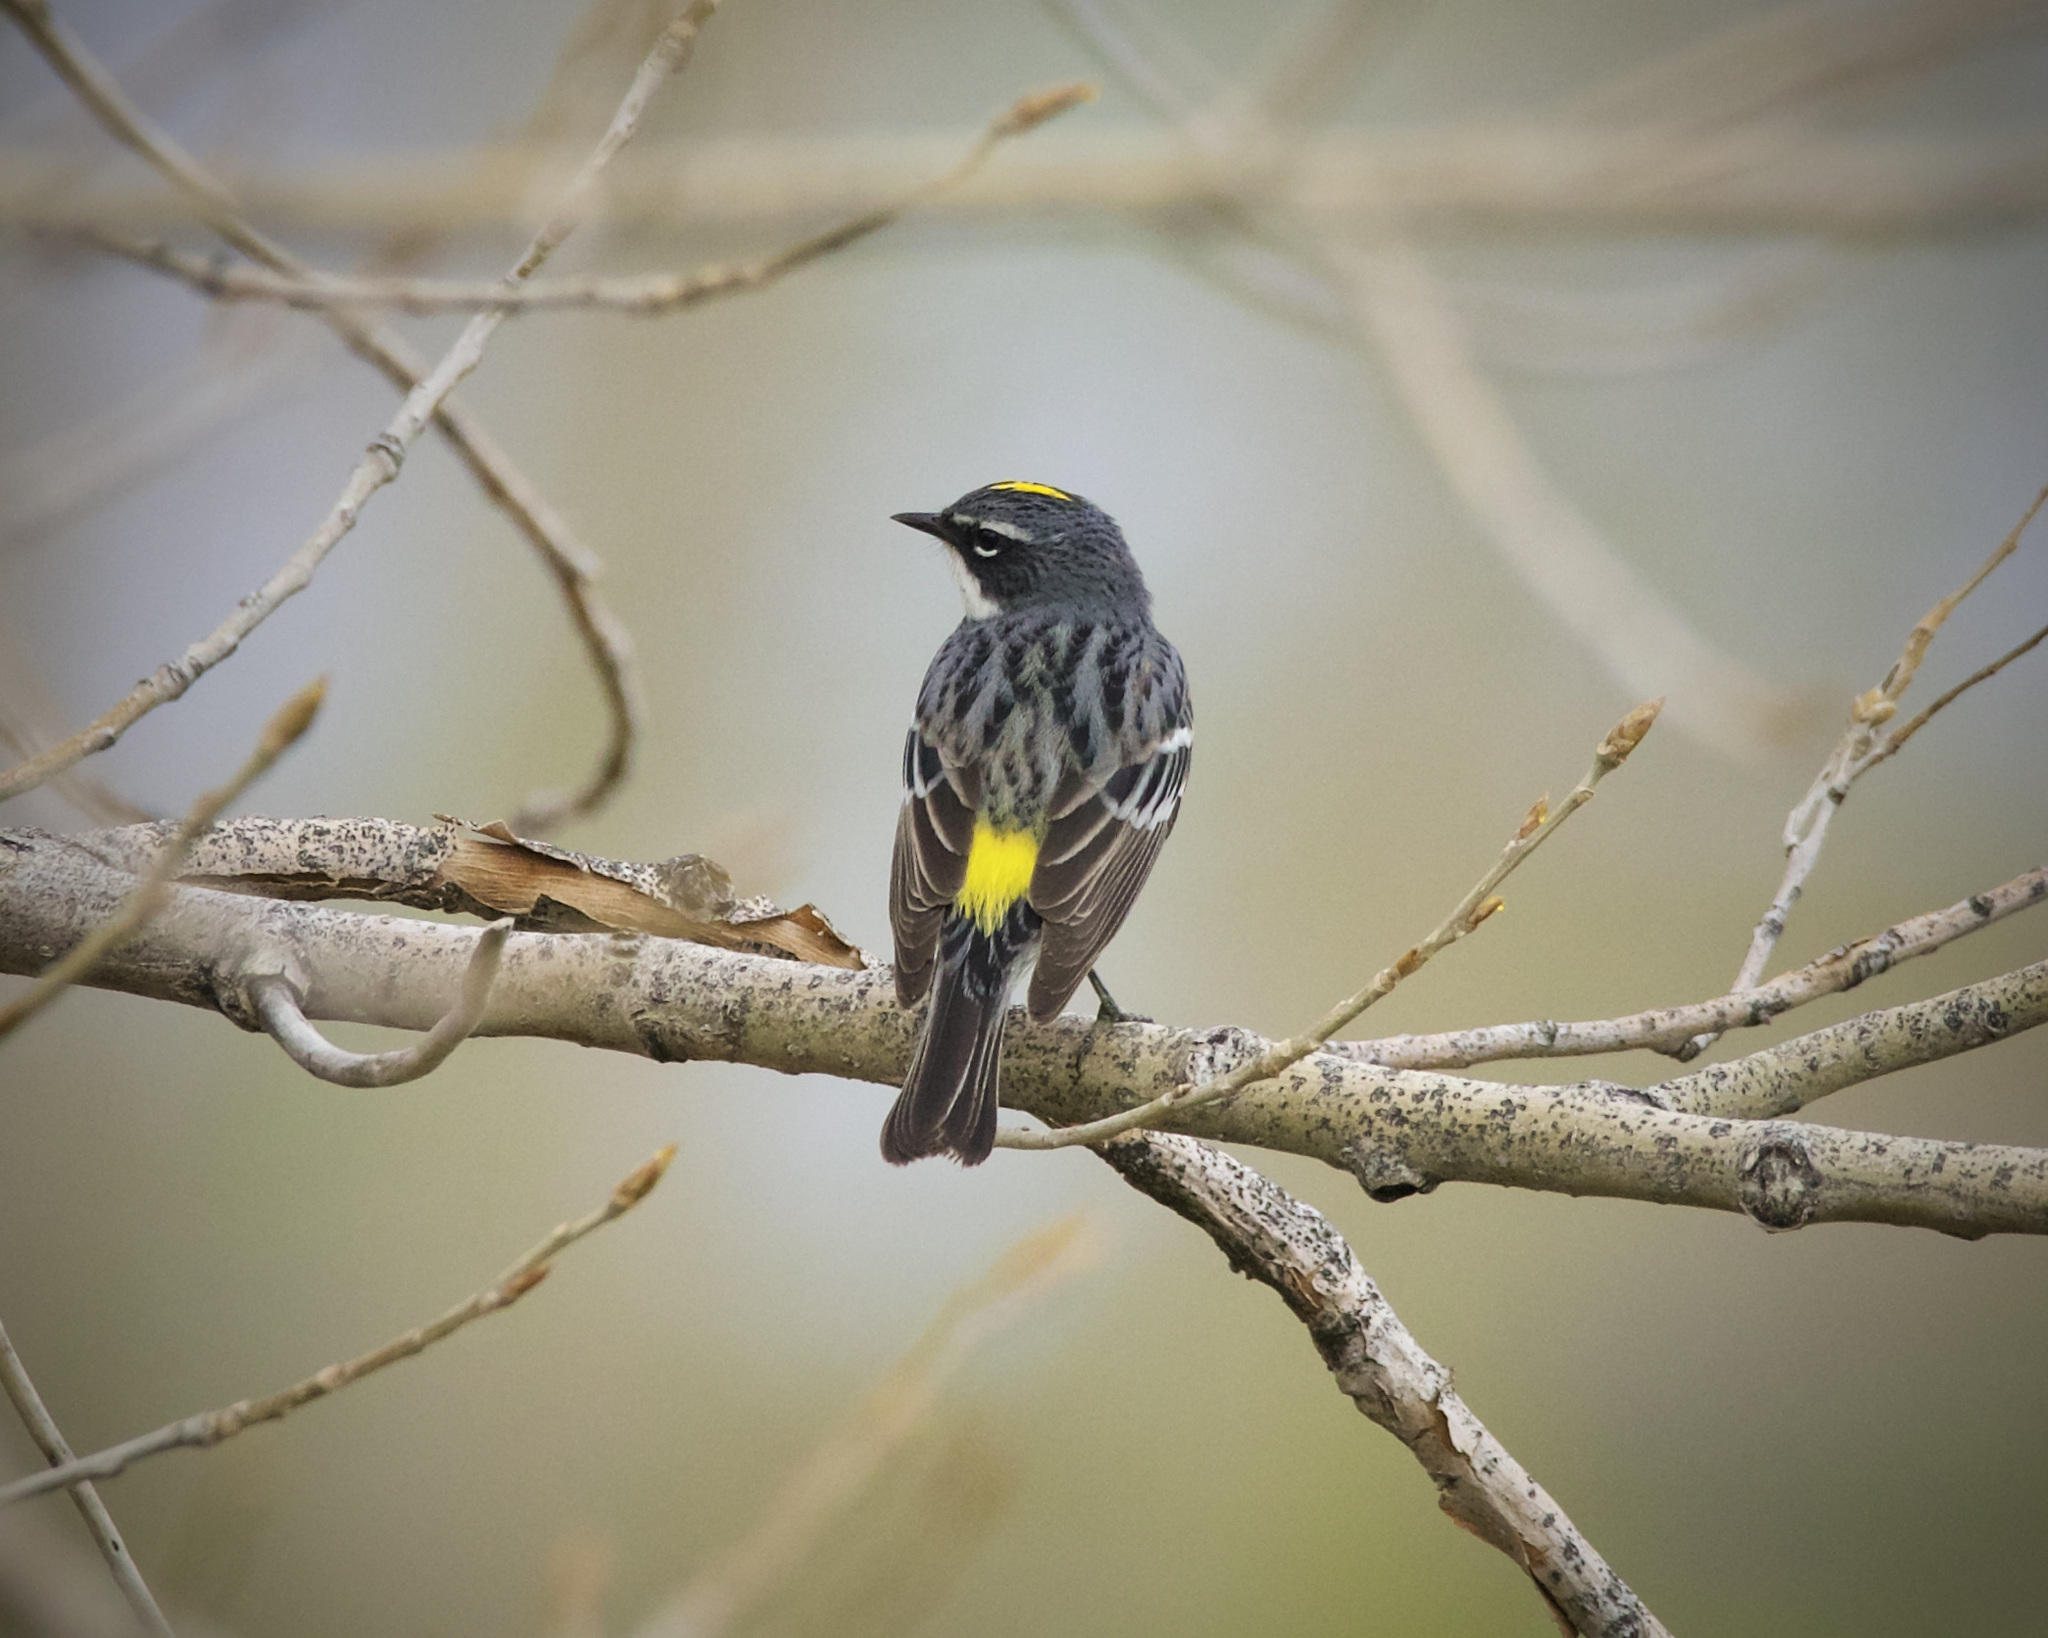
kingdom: Animalia
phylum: Chordata
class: Aves
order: Passeriformes
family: Parulidae
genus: Setophaga
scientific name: Setophaga coronata
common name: Myrtle warbler
